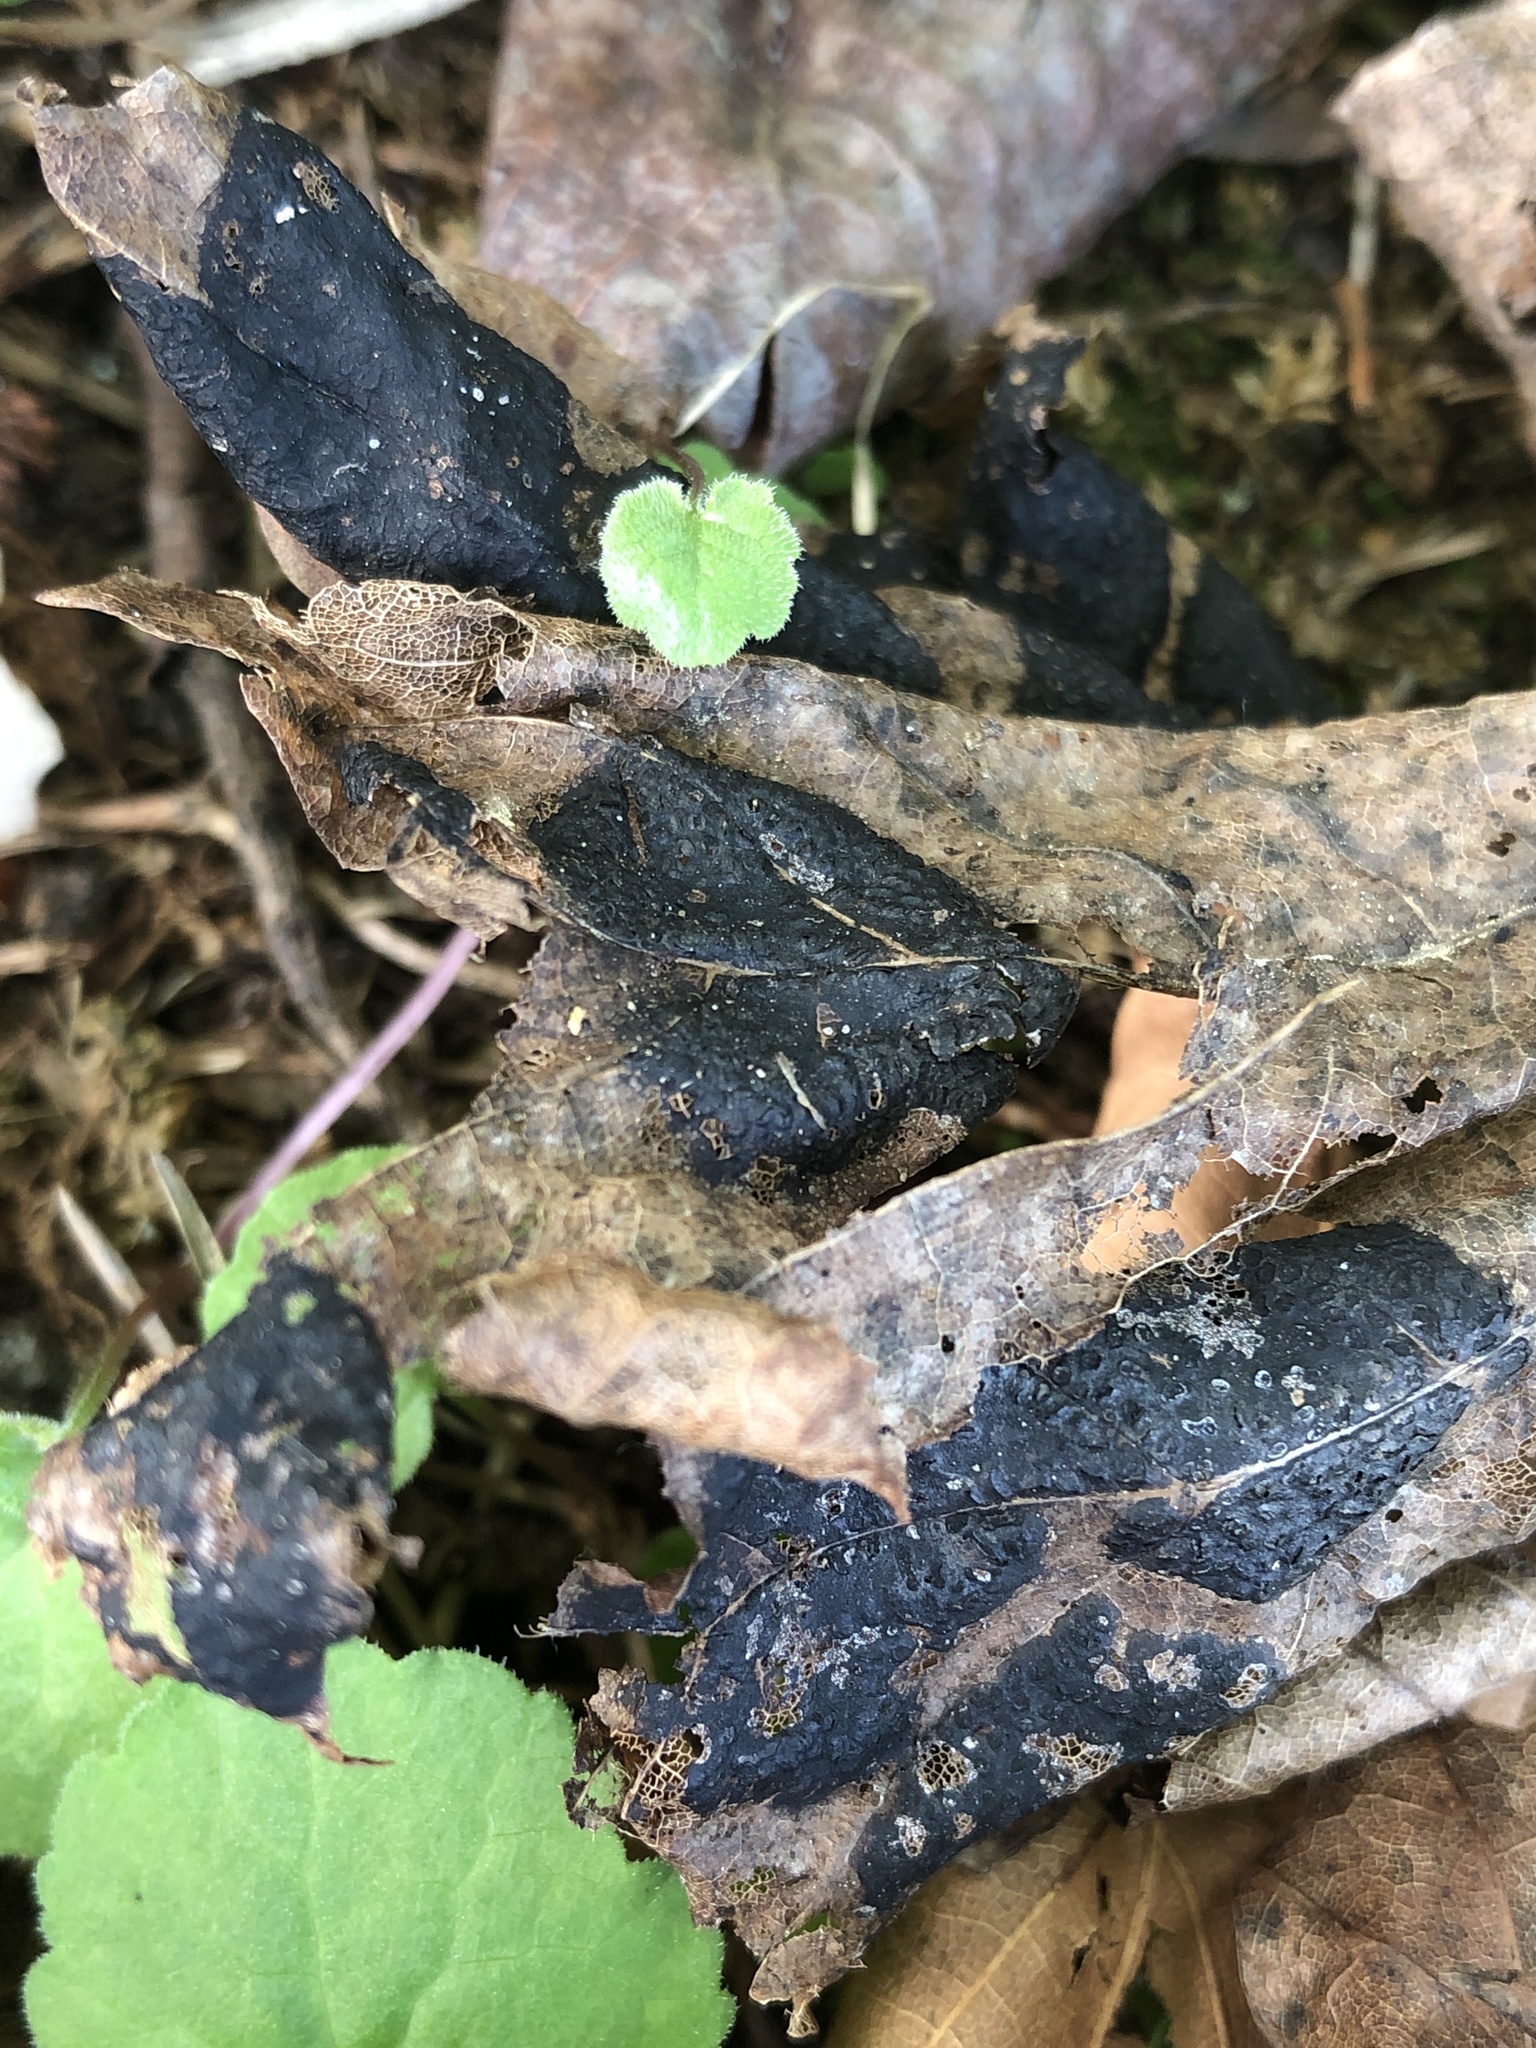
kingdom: Fungi
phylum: Ascomycota
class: Leotiomycetes
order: Rhytismatales
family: Rhytismataceae
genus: Rhytisma
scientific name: Rhytisma acerinum
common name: European tar spot
